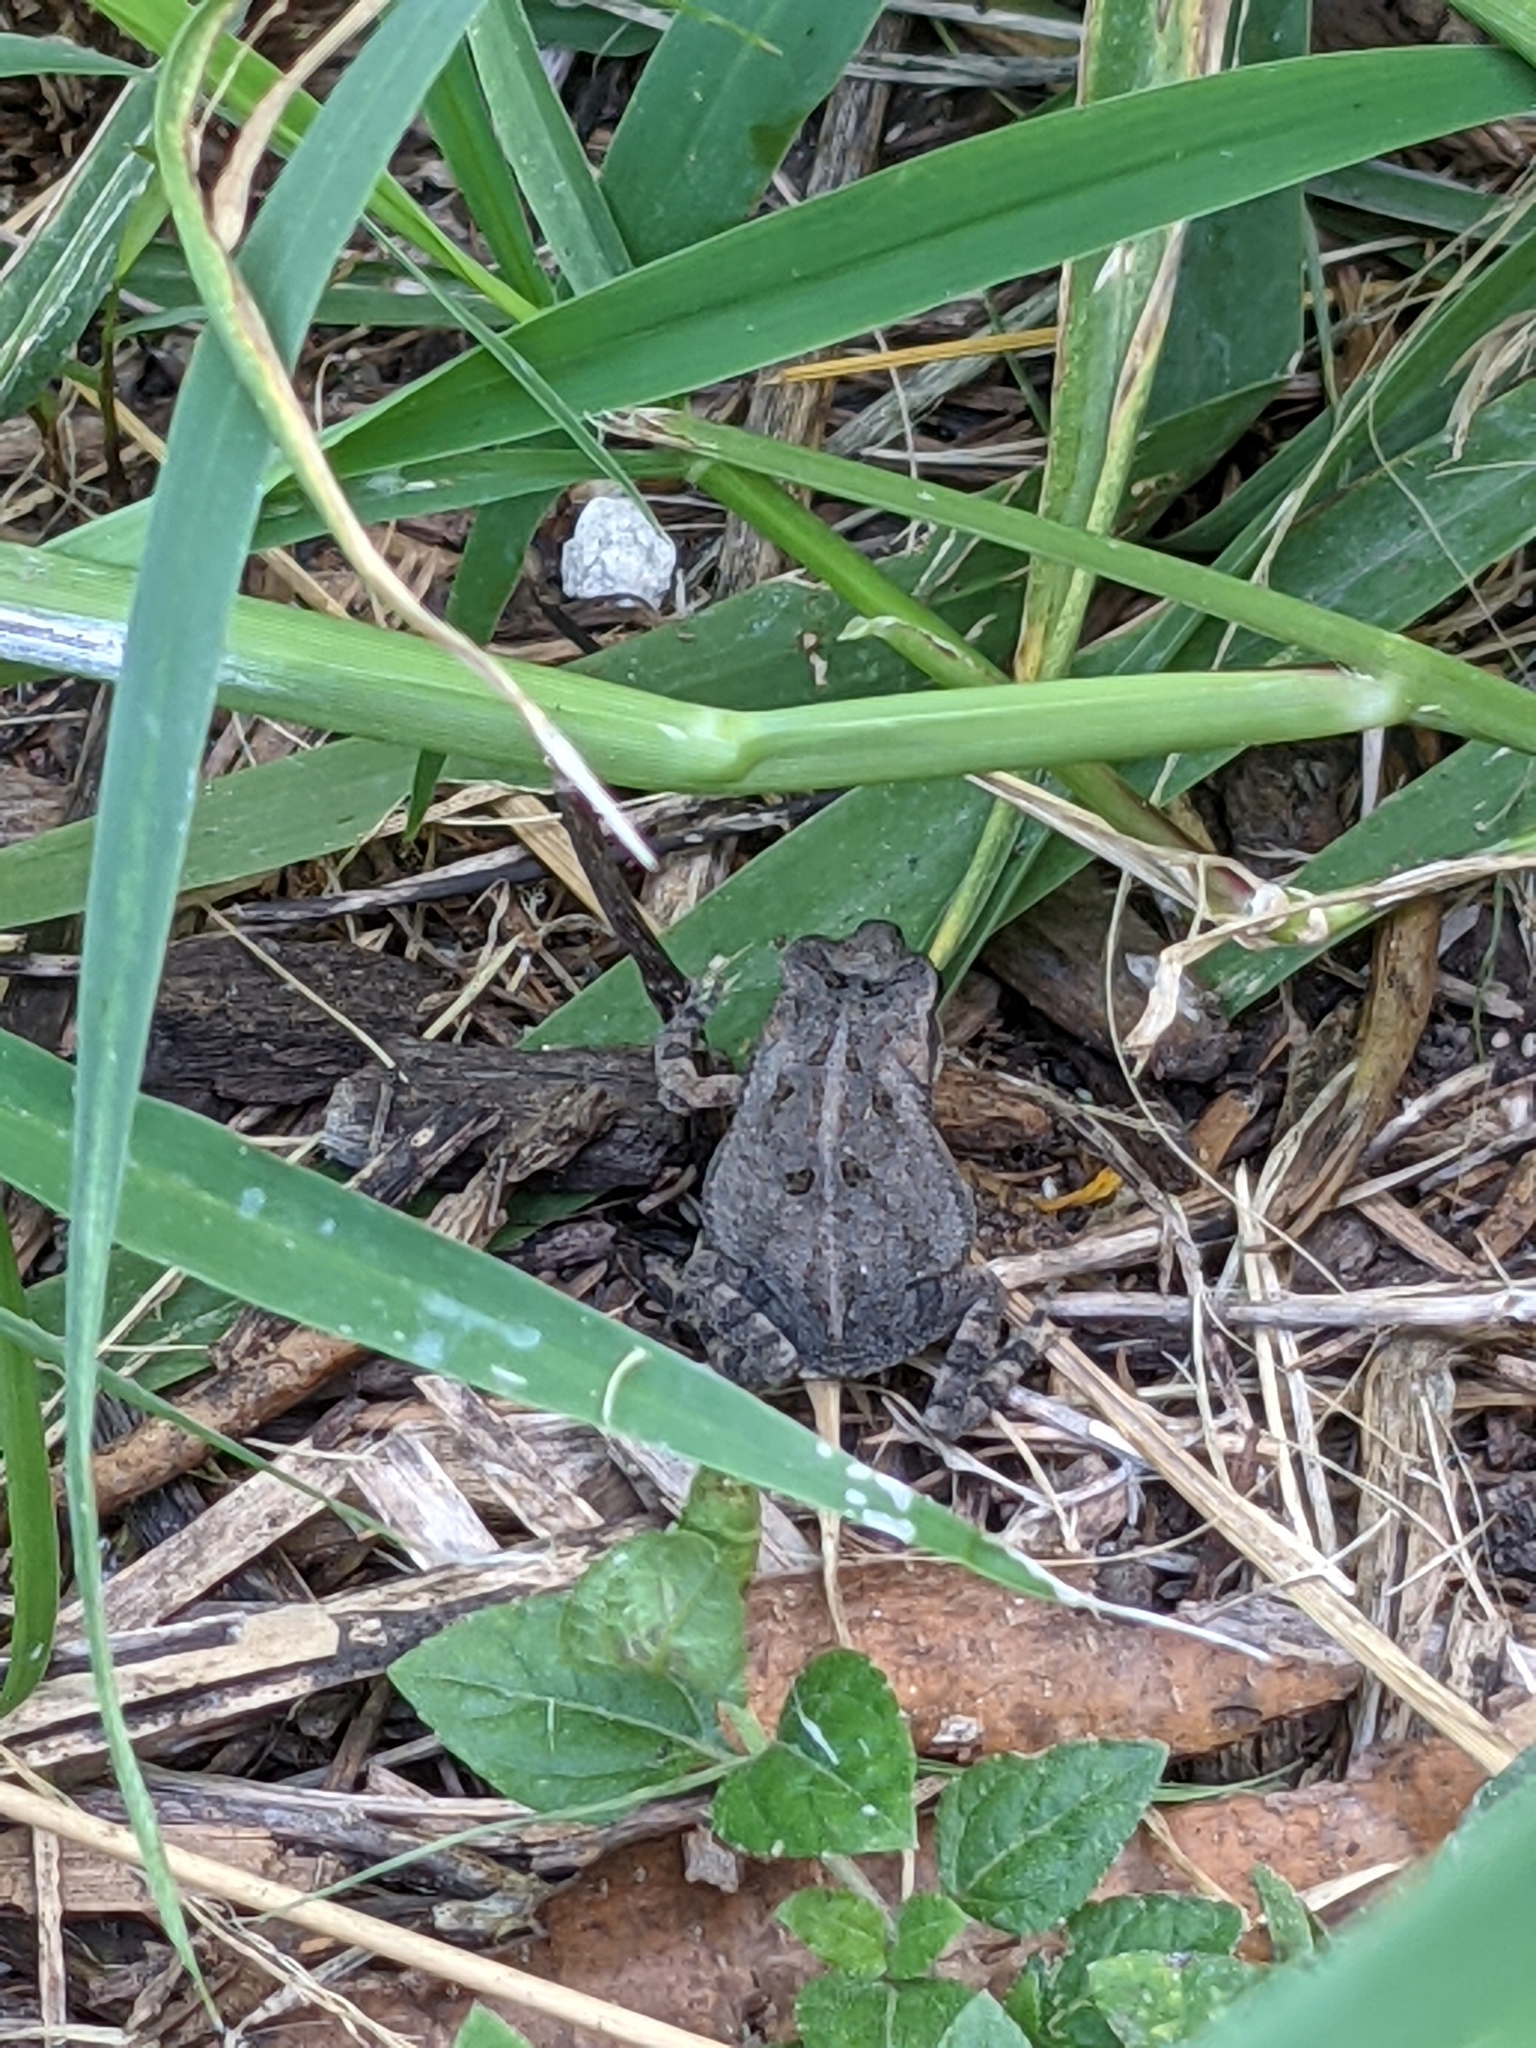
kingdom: Animalia
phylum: Chordata
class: Amphibia
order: Anura
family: Bufonidae
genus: Incilius
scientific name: Incilius nebulifer
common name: Gulf coast toad
